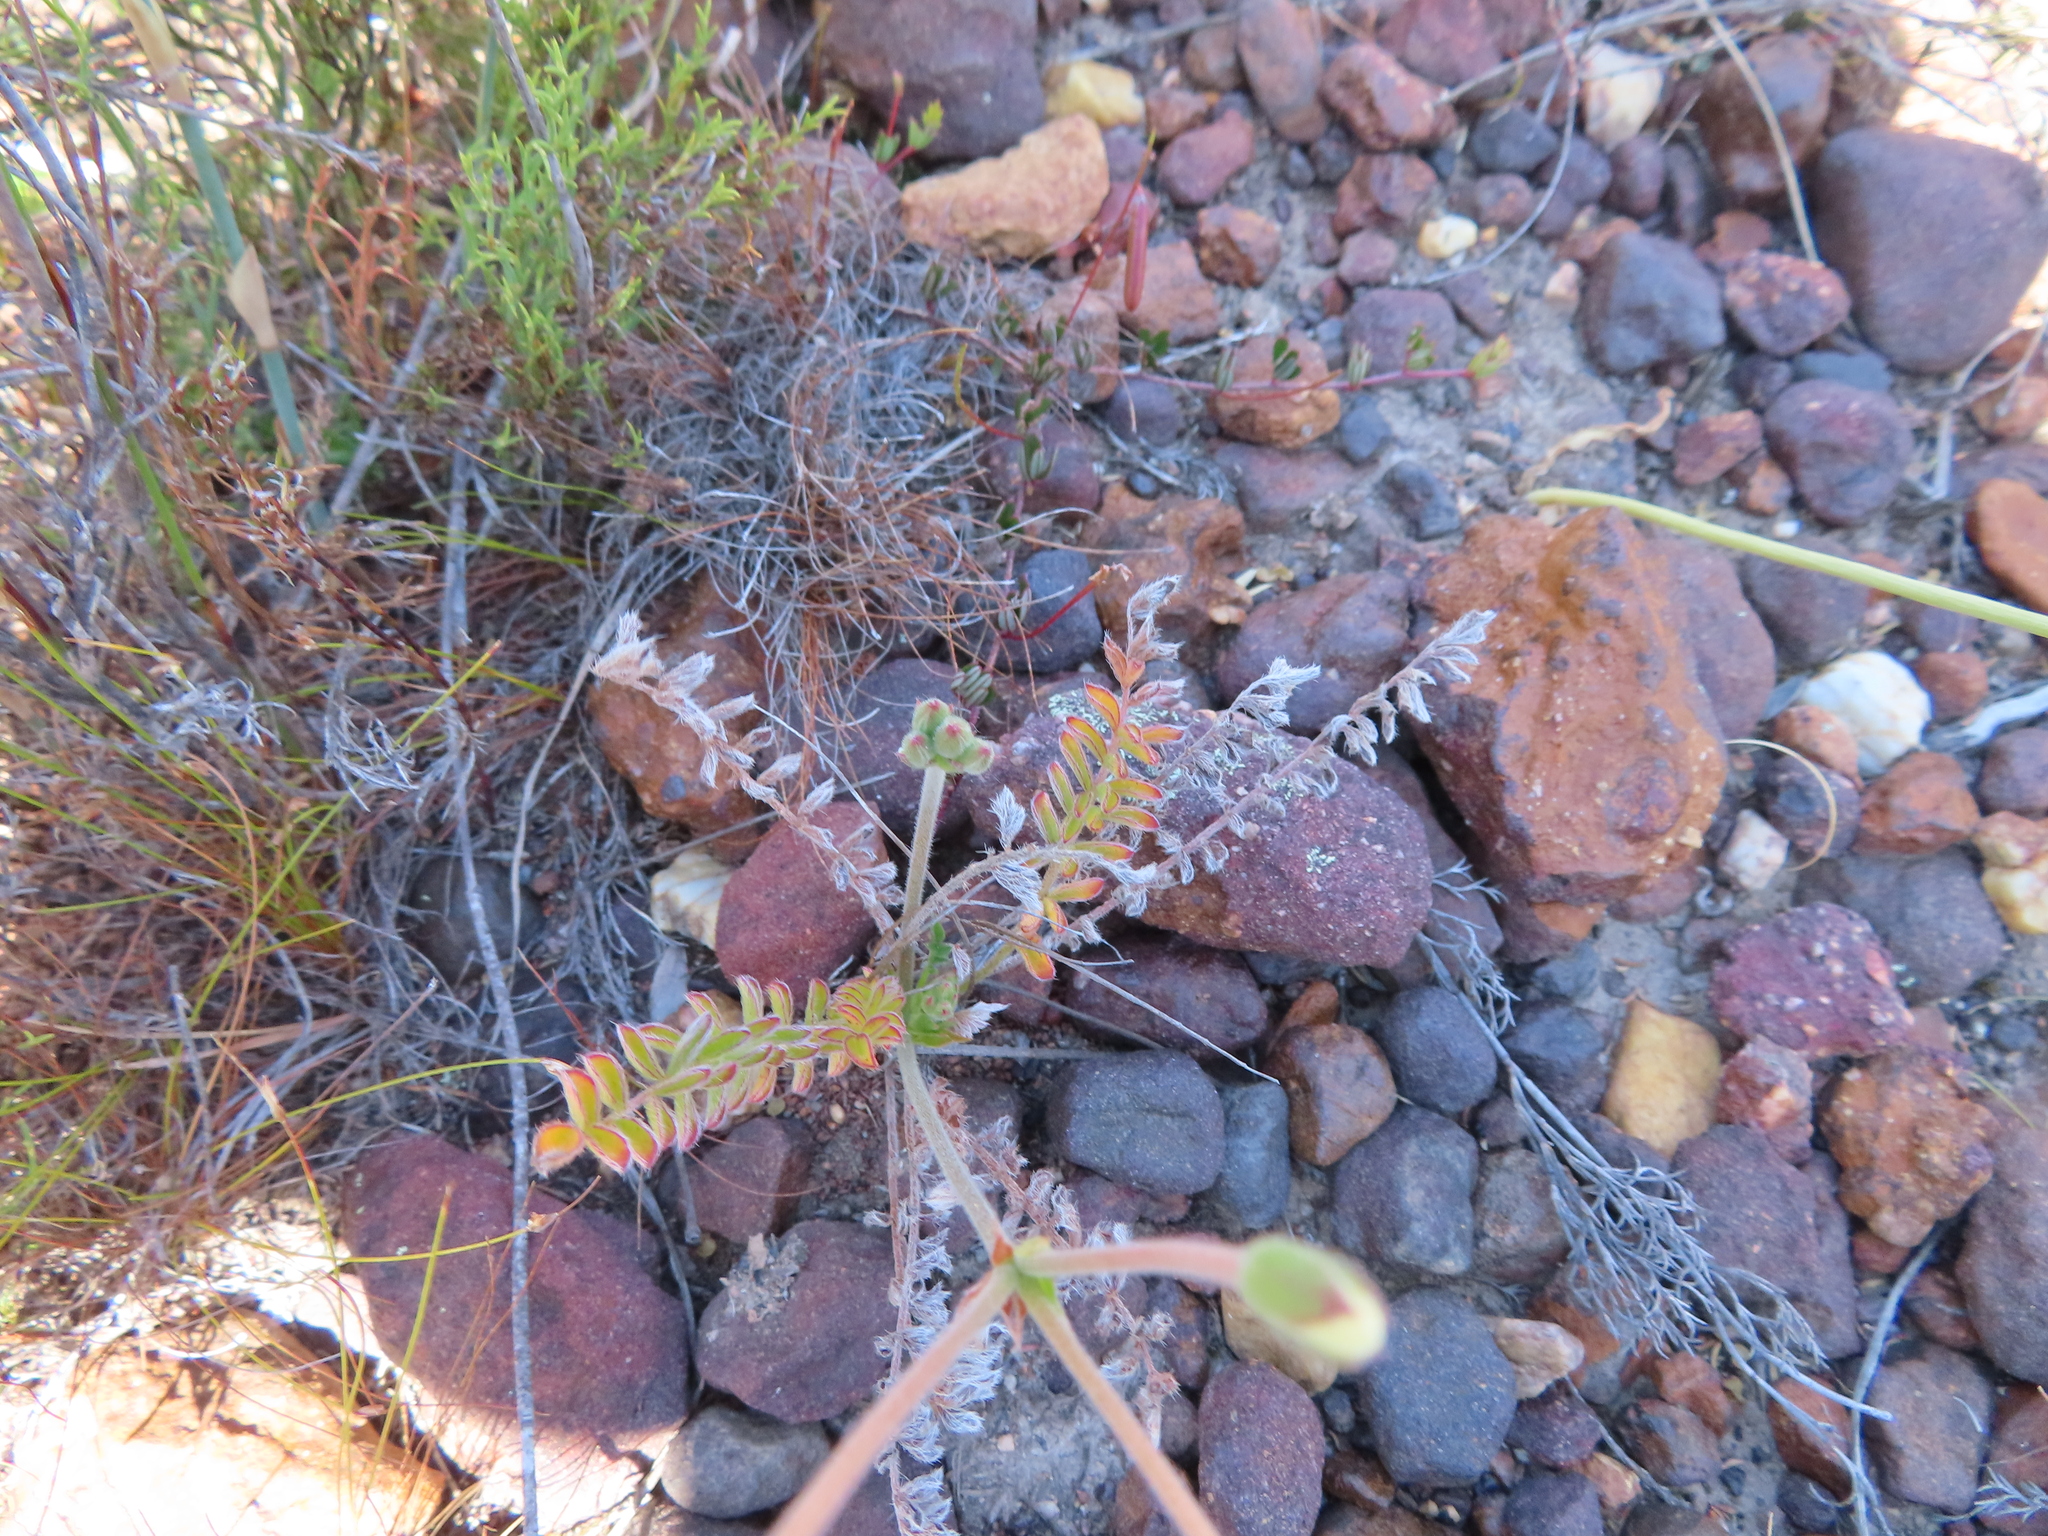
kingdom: Plantae
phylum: Tracheophyta
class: Magnoliopsida
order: Geraniales
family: Geraniaceae
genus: Pelargonium
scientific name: Pelargonium pinnatum
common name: Pinnated pelargonium
